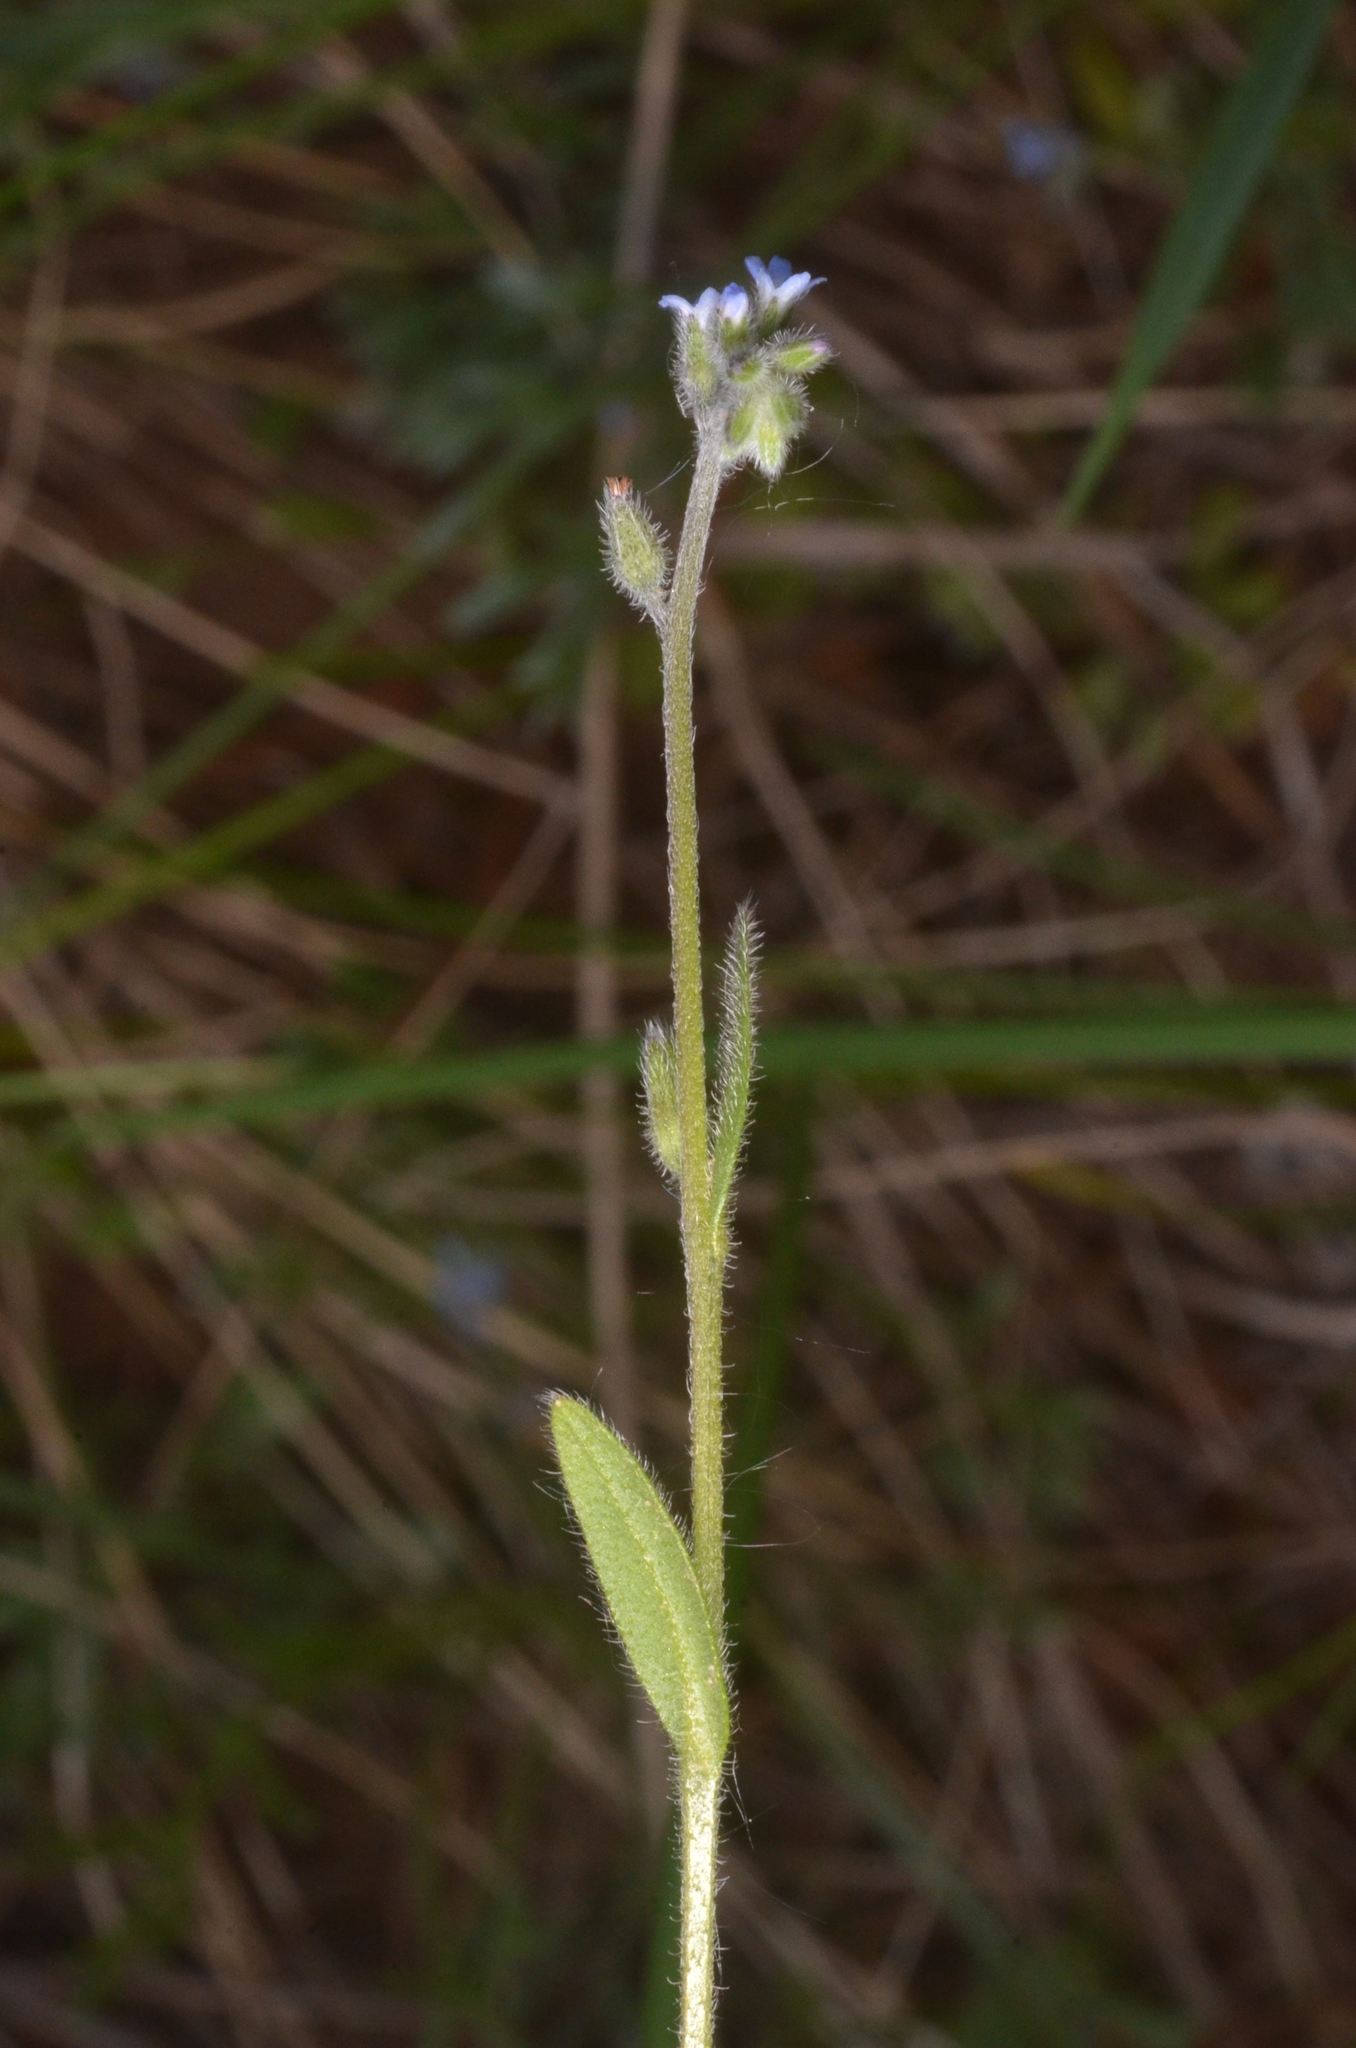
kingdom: Plantae
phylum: Tracheophyta
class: Magnoliopsida
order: Boraginales
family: Boraginaceae
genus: Myosotis
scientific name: Myosotis stricta
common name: Strict forget-me-not
